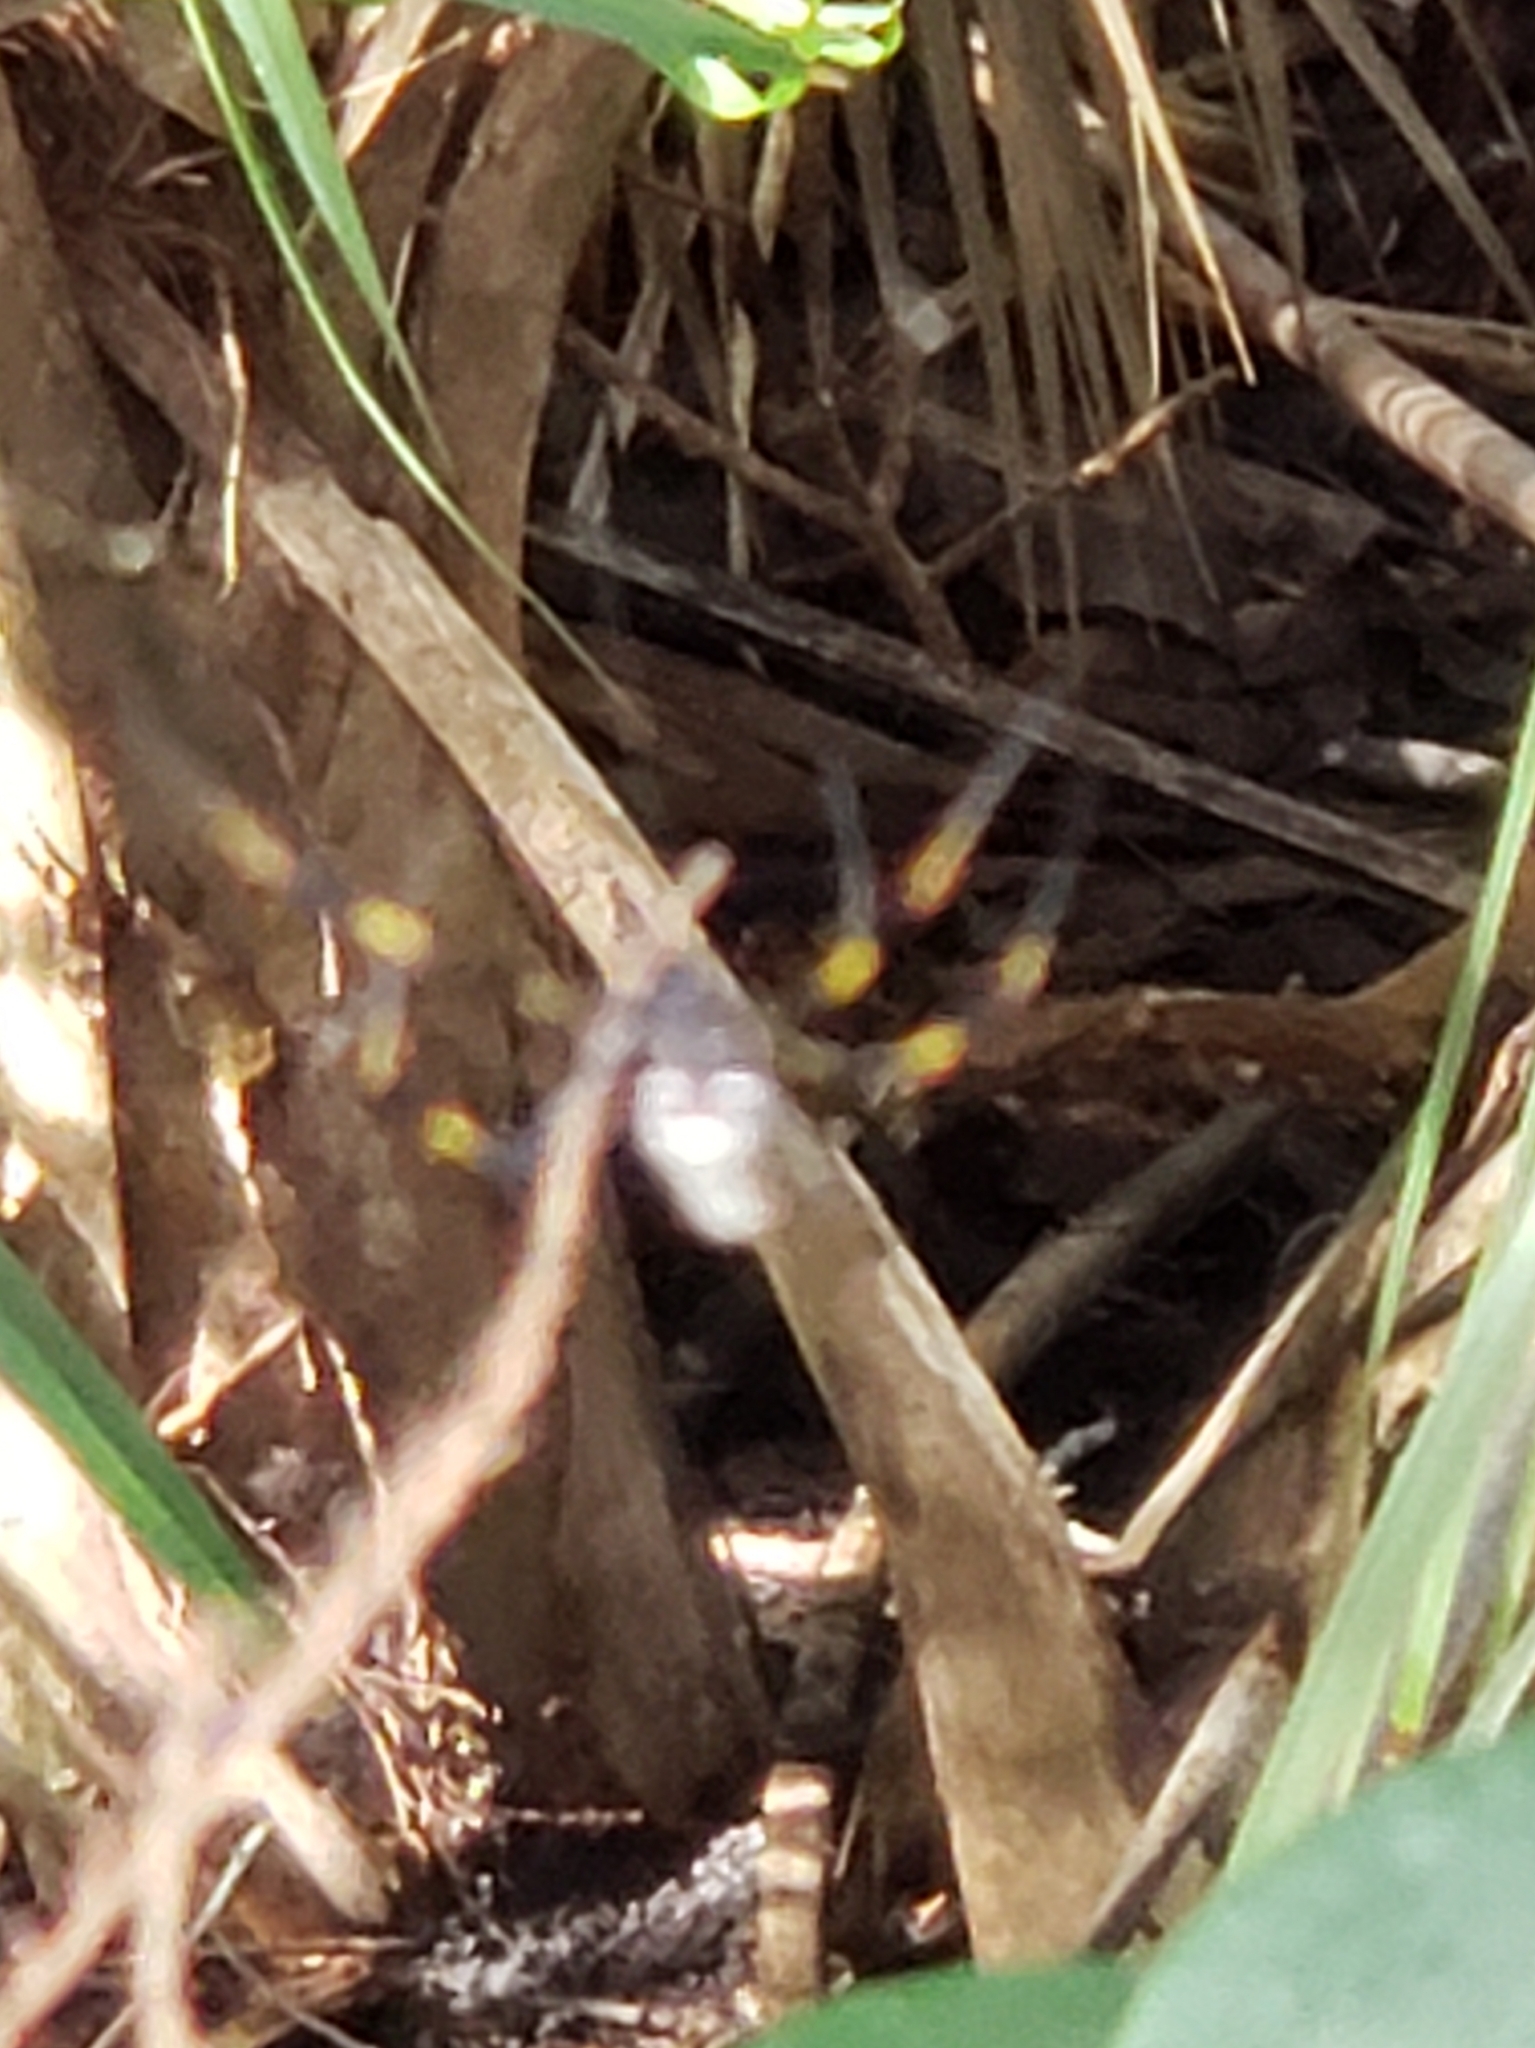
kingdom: Animalia
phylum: Arthropoda
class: Arachnida
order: Araneae
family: Araneidae
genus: Trichonephila
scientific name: Trichonephila clavipes
